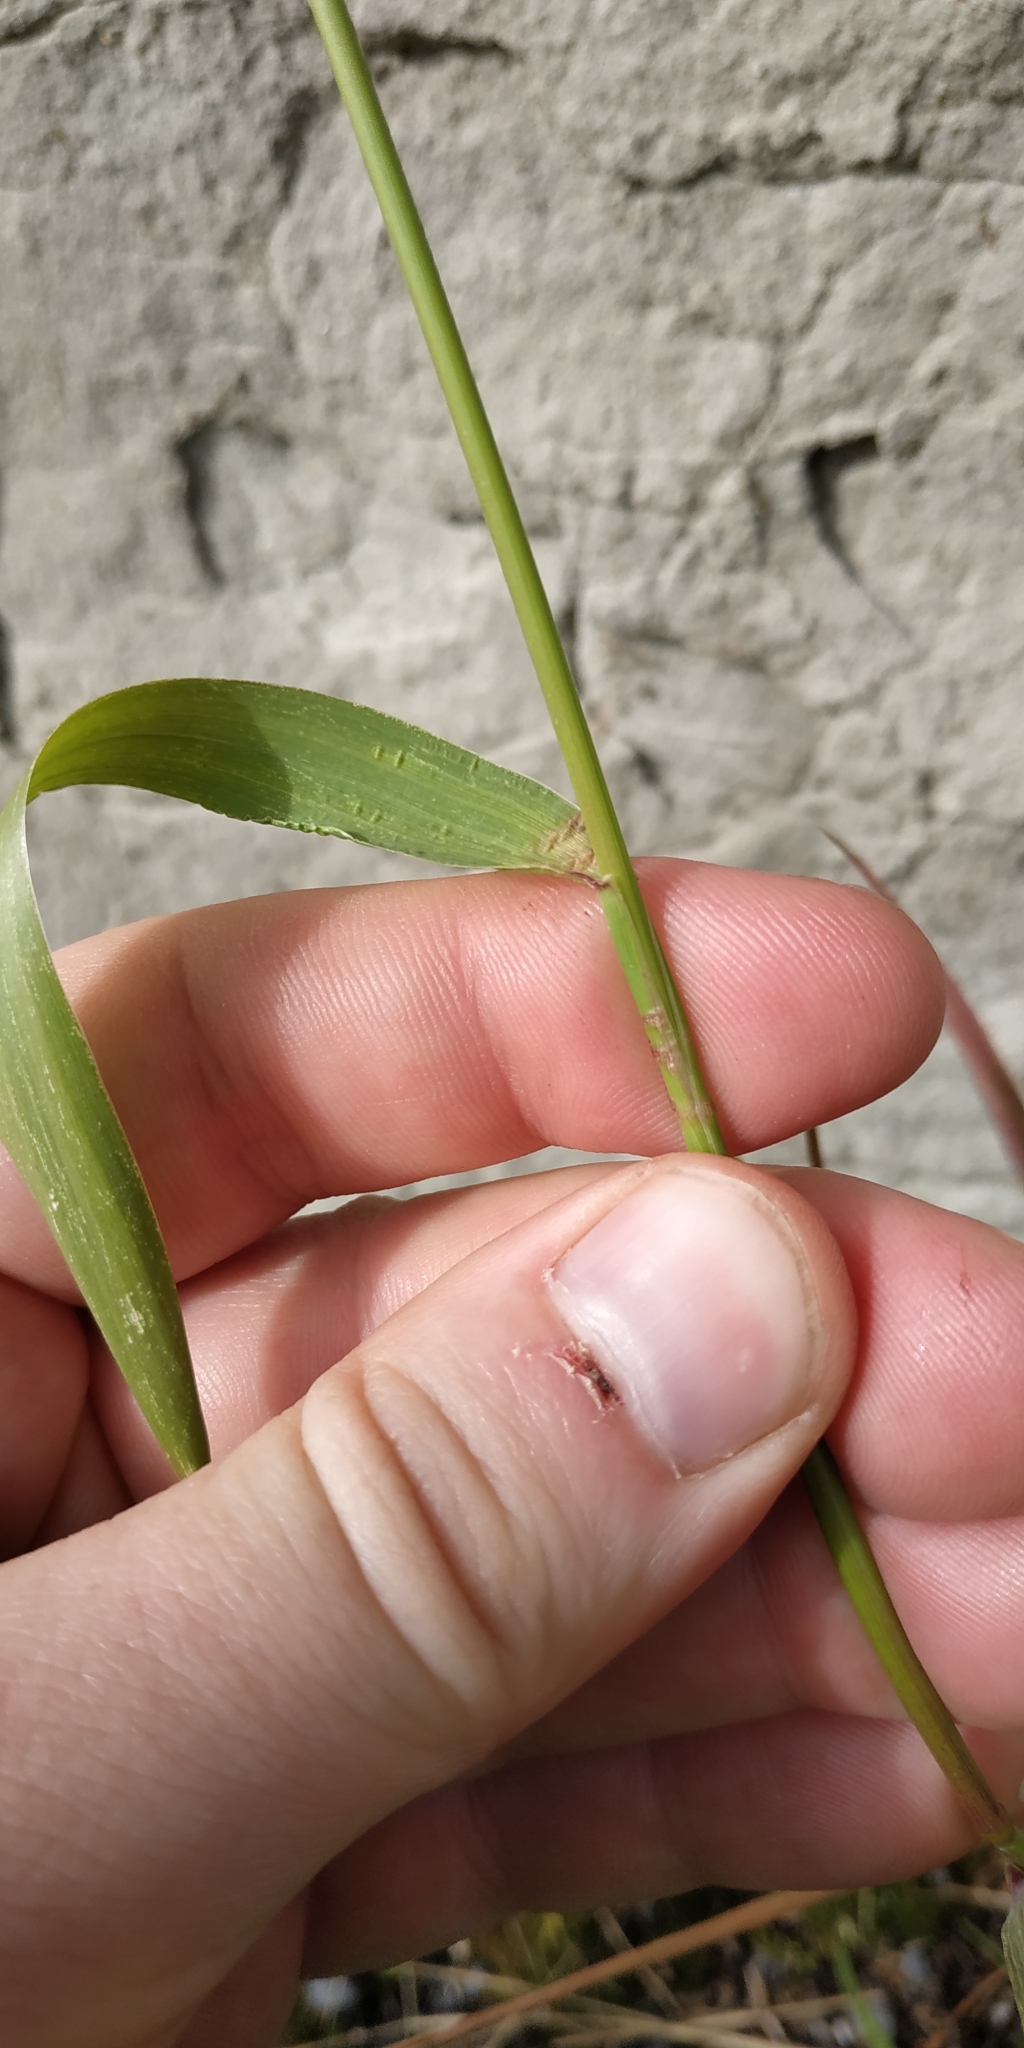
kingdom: Plantae
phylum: Tracheophyta
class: Liliopsida
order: Poales
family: Poaceae
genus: Elymus
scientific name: Elymus repens
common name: Quackgrass
